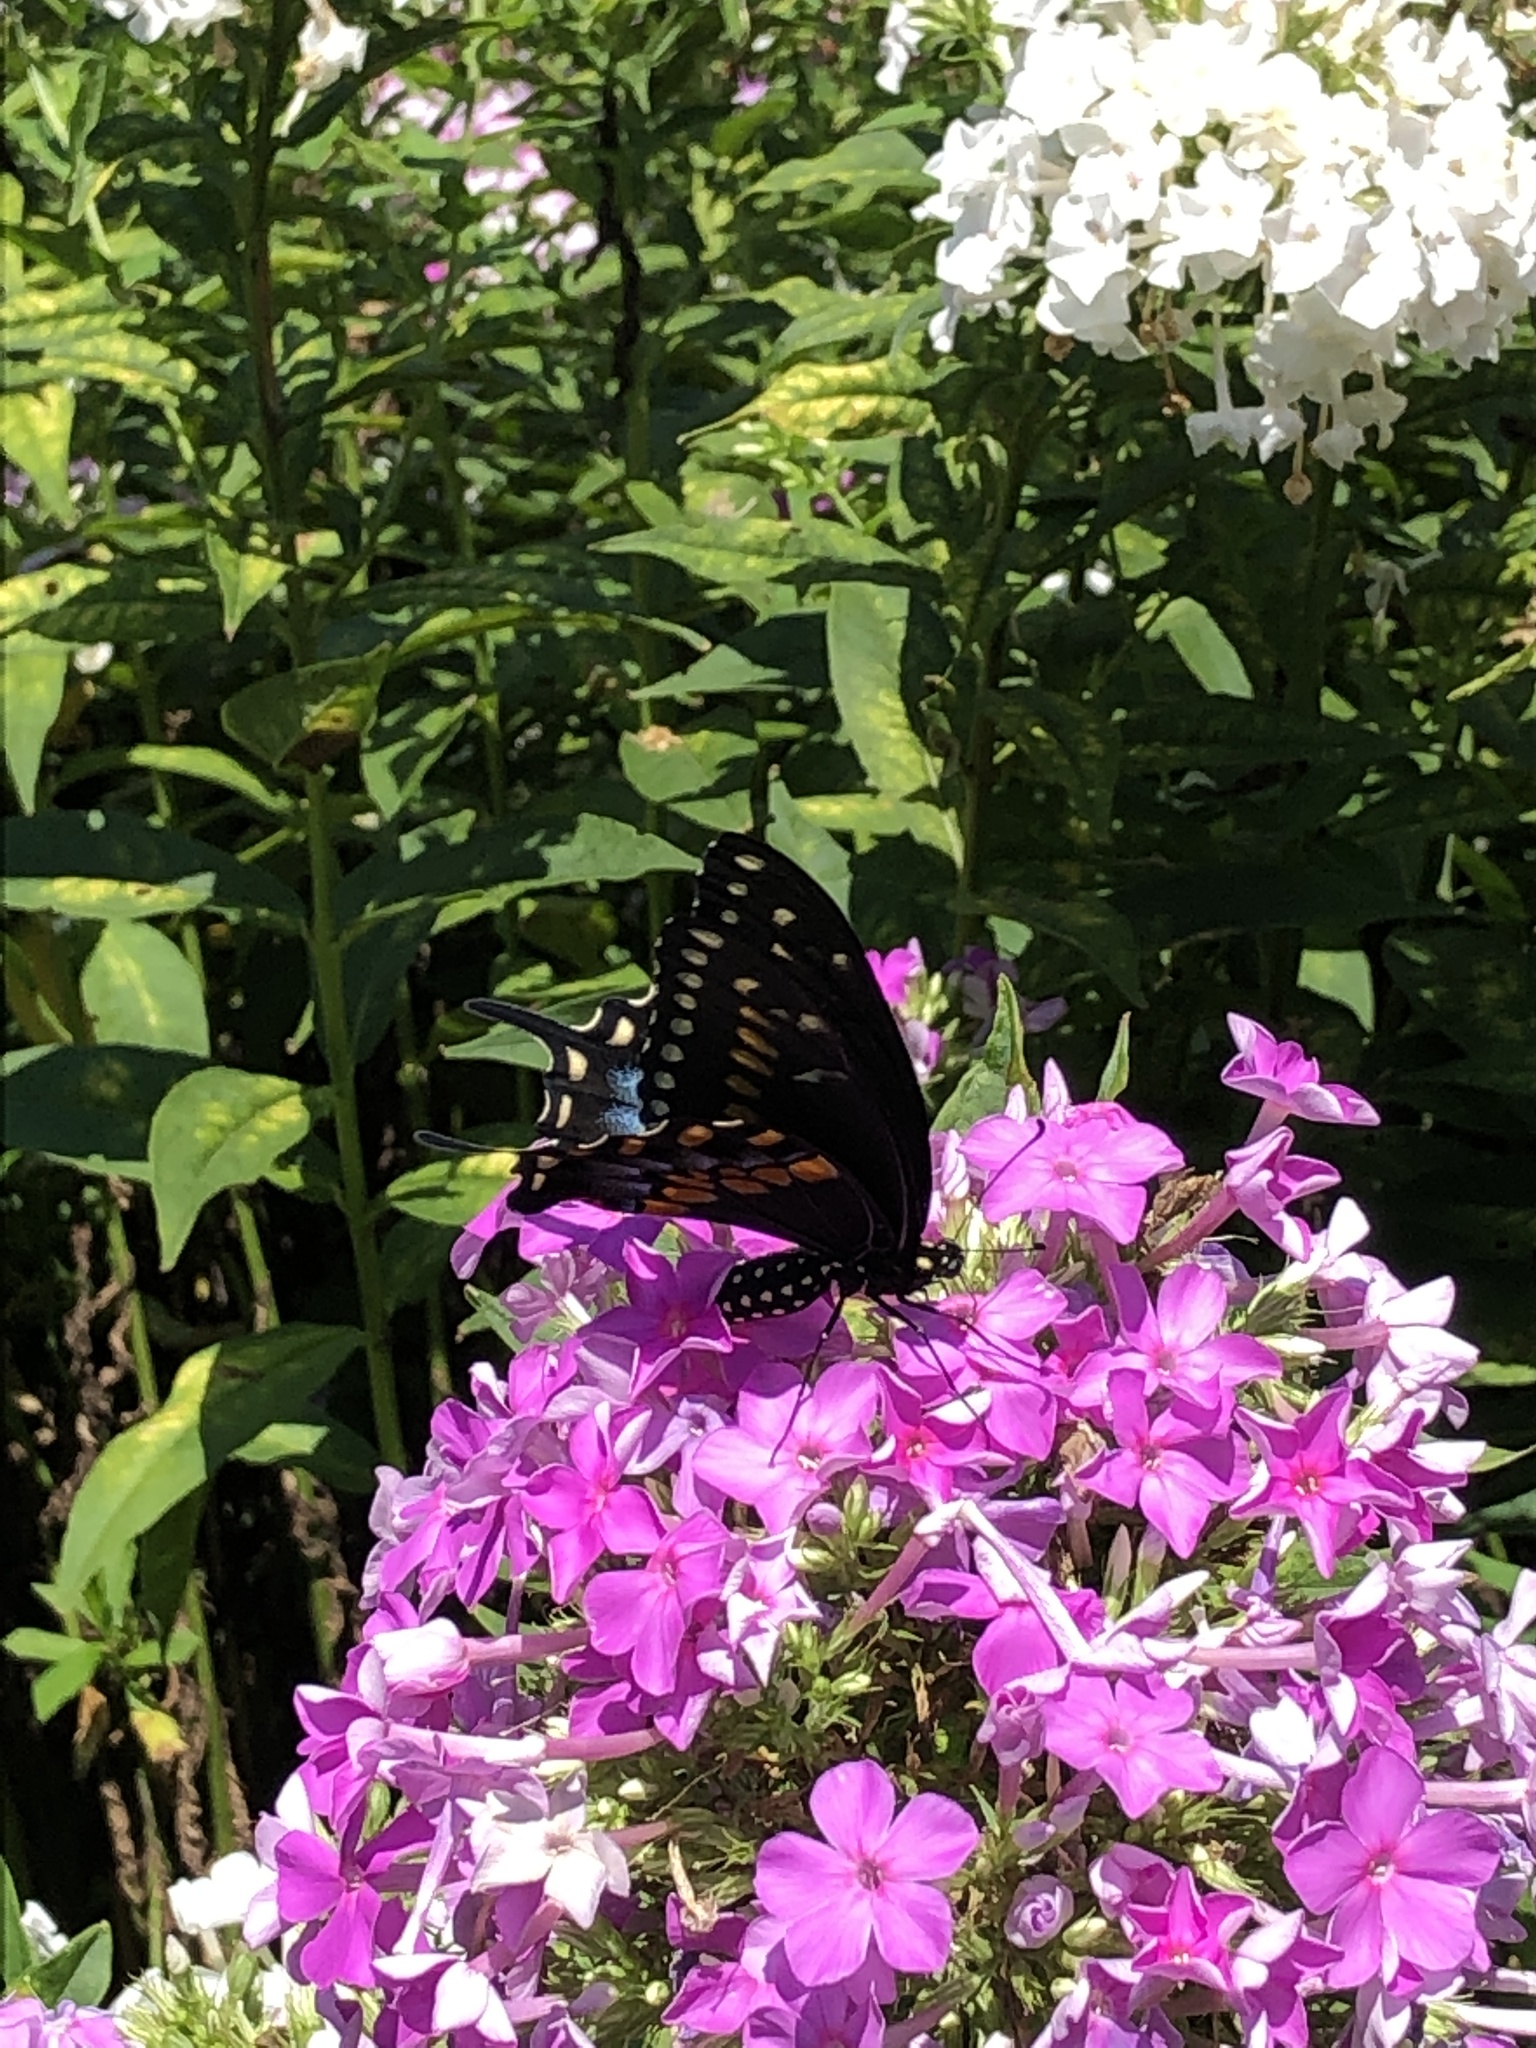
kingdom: Animalia
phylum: Arthropoda
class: Insecta
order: Lepidoptera
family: Papilionidae
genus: Papilio
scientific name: Papilio polyxenes
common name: Black swallowtail
